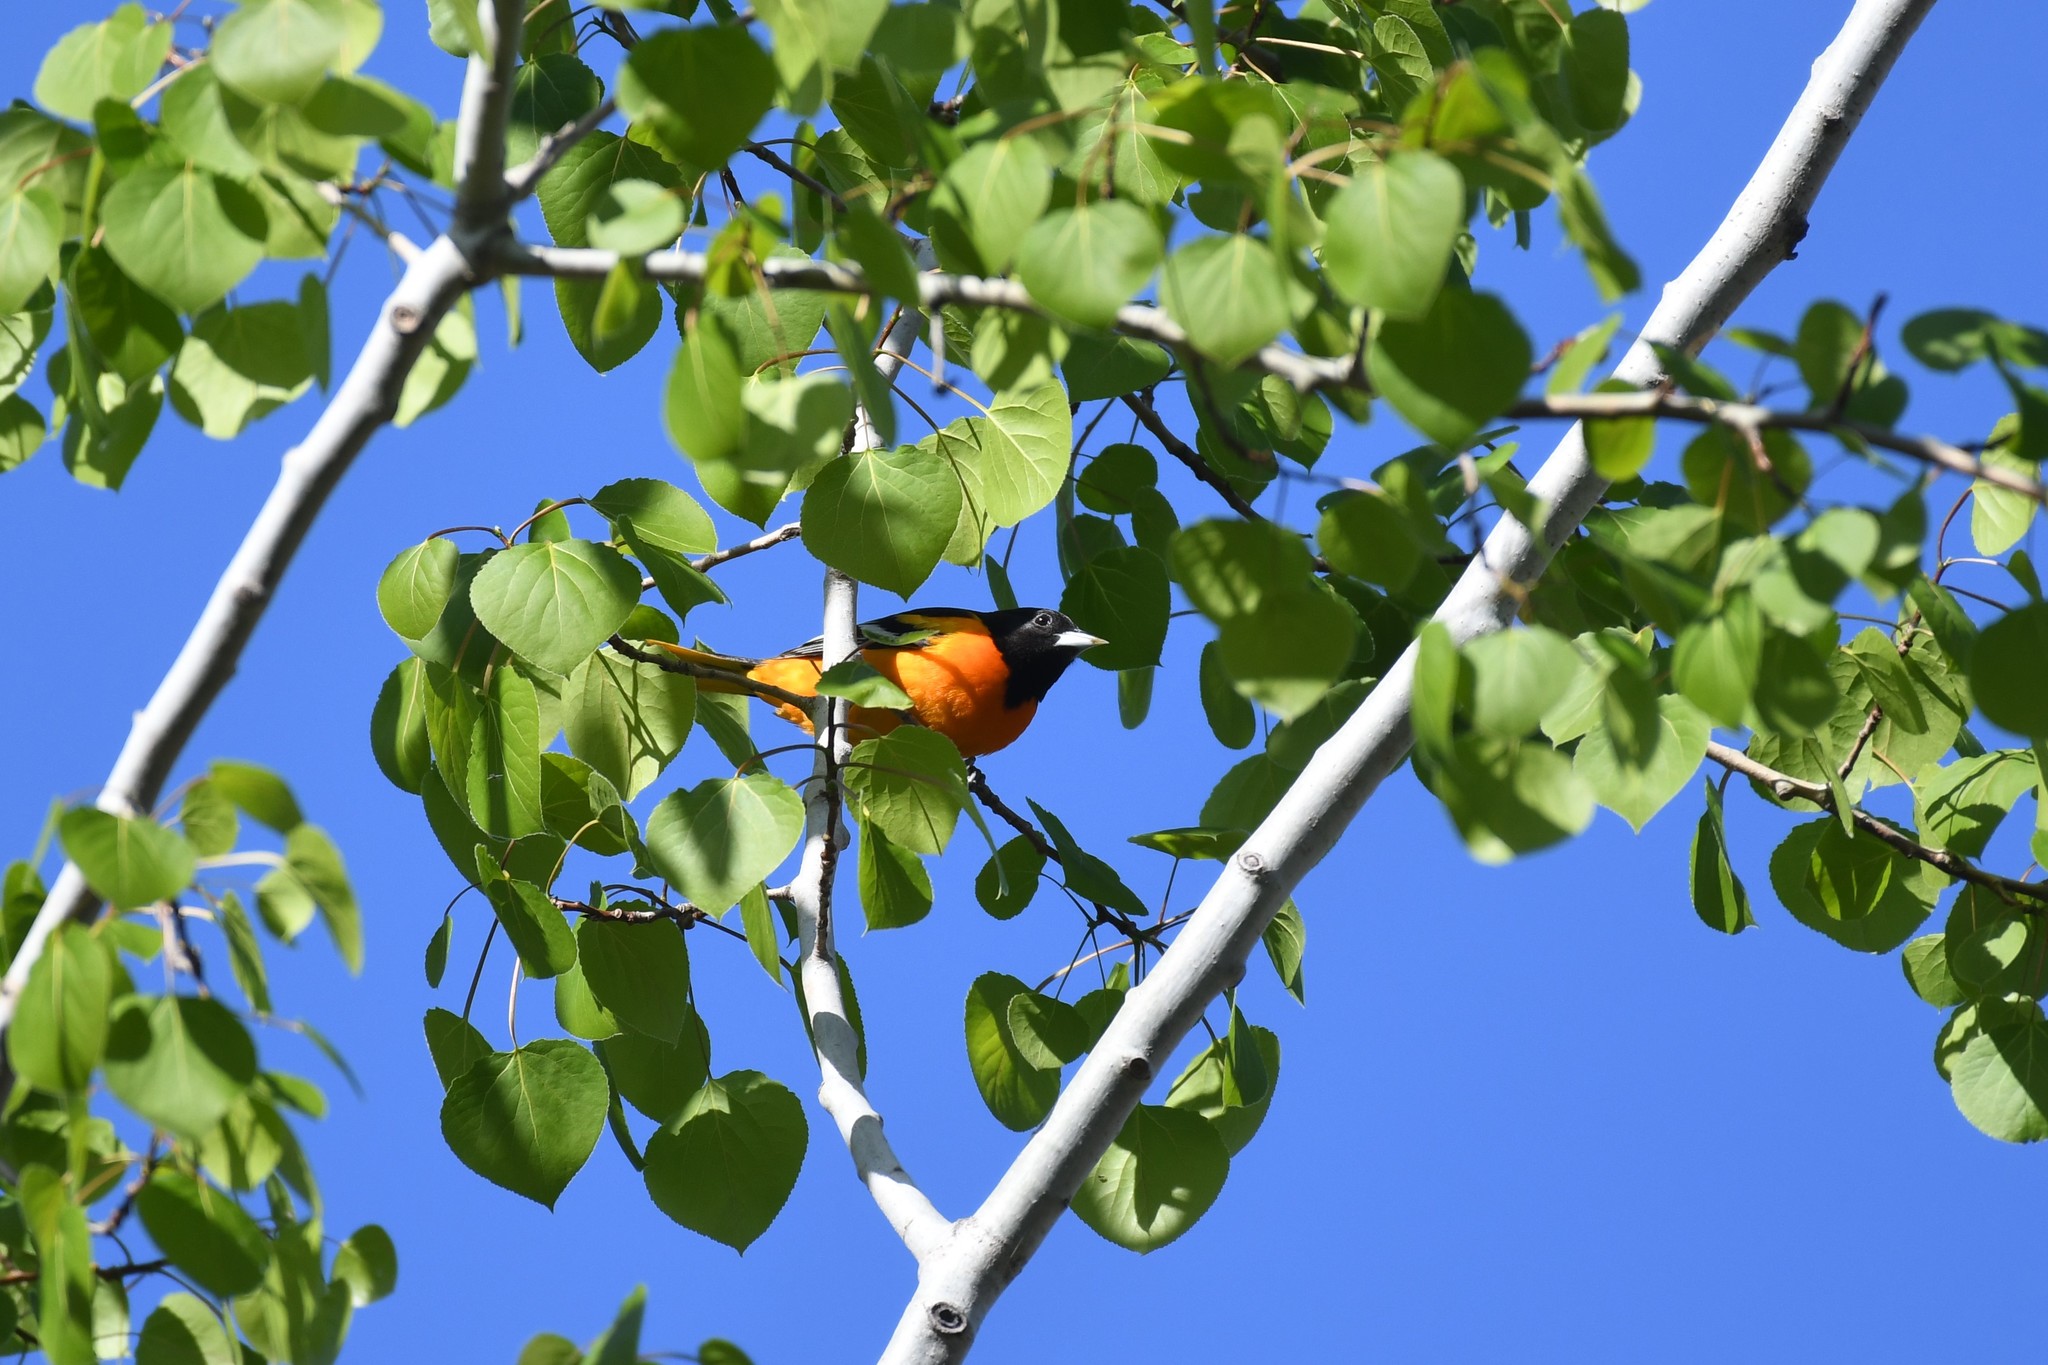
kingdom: Animalia
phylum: Chordata
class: Aves
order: Passeriformes
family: Icteridae
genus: Icterus
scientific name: Icterus galbula
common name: Baltimore oriole
